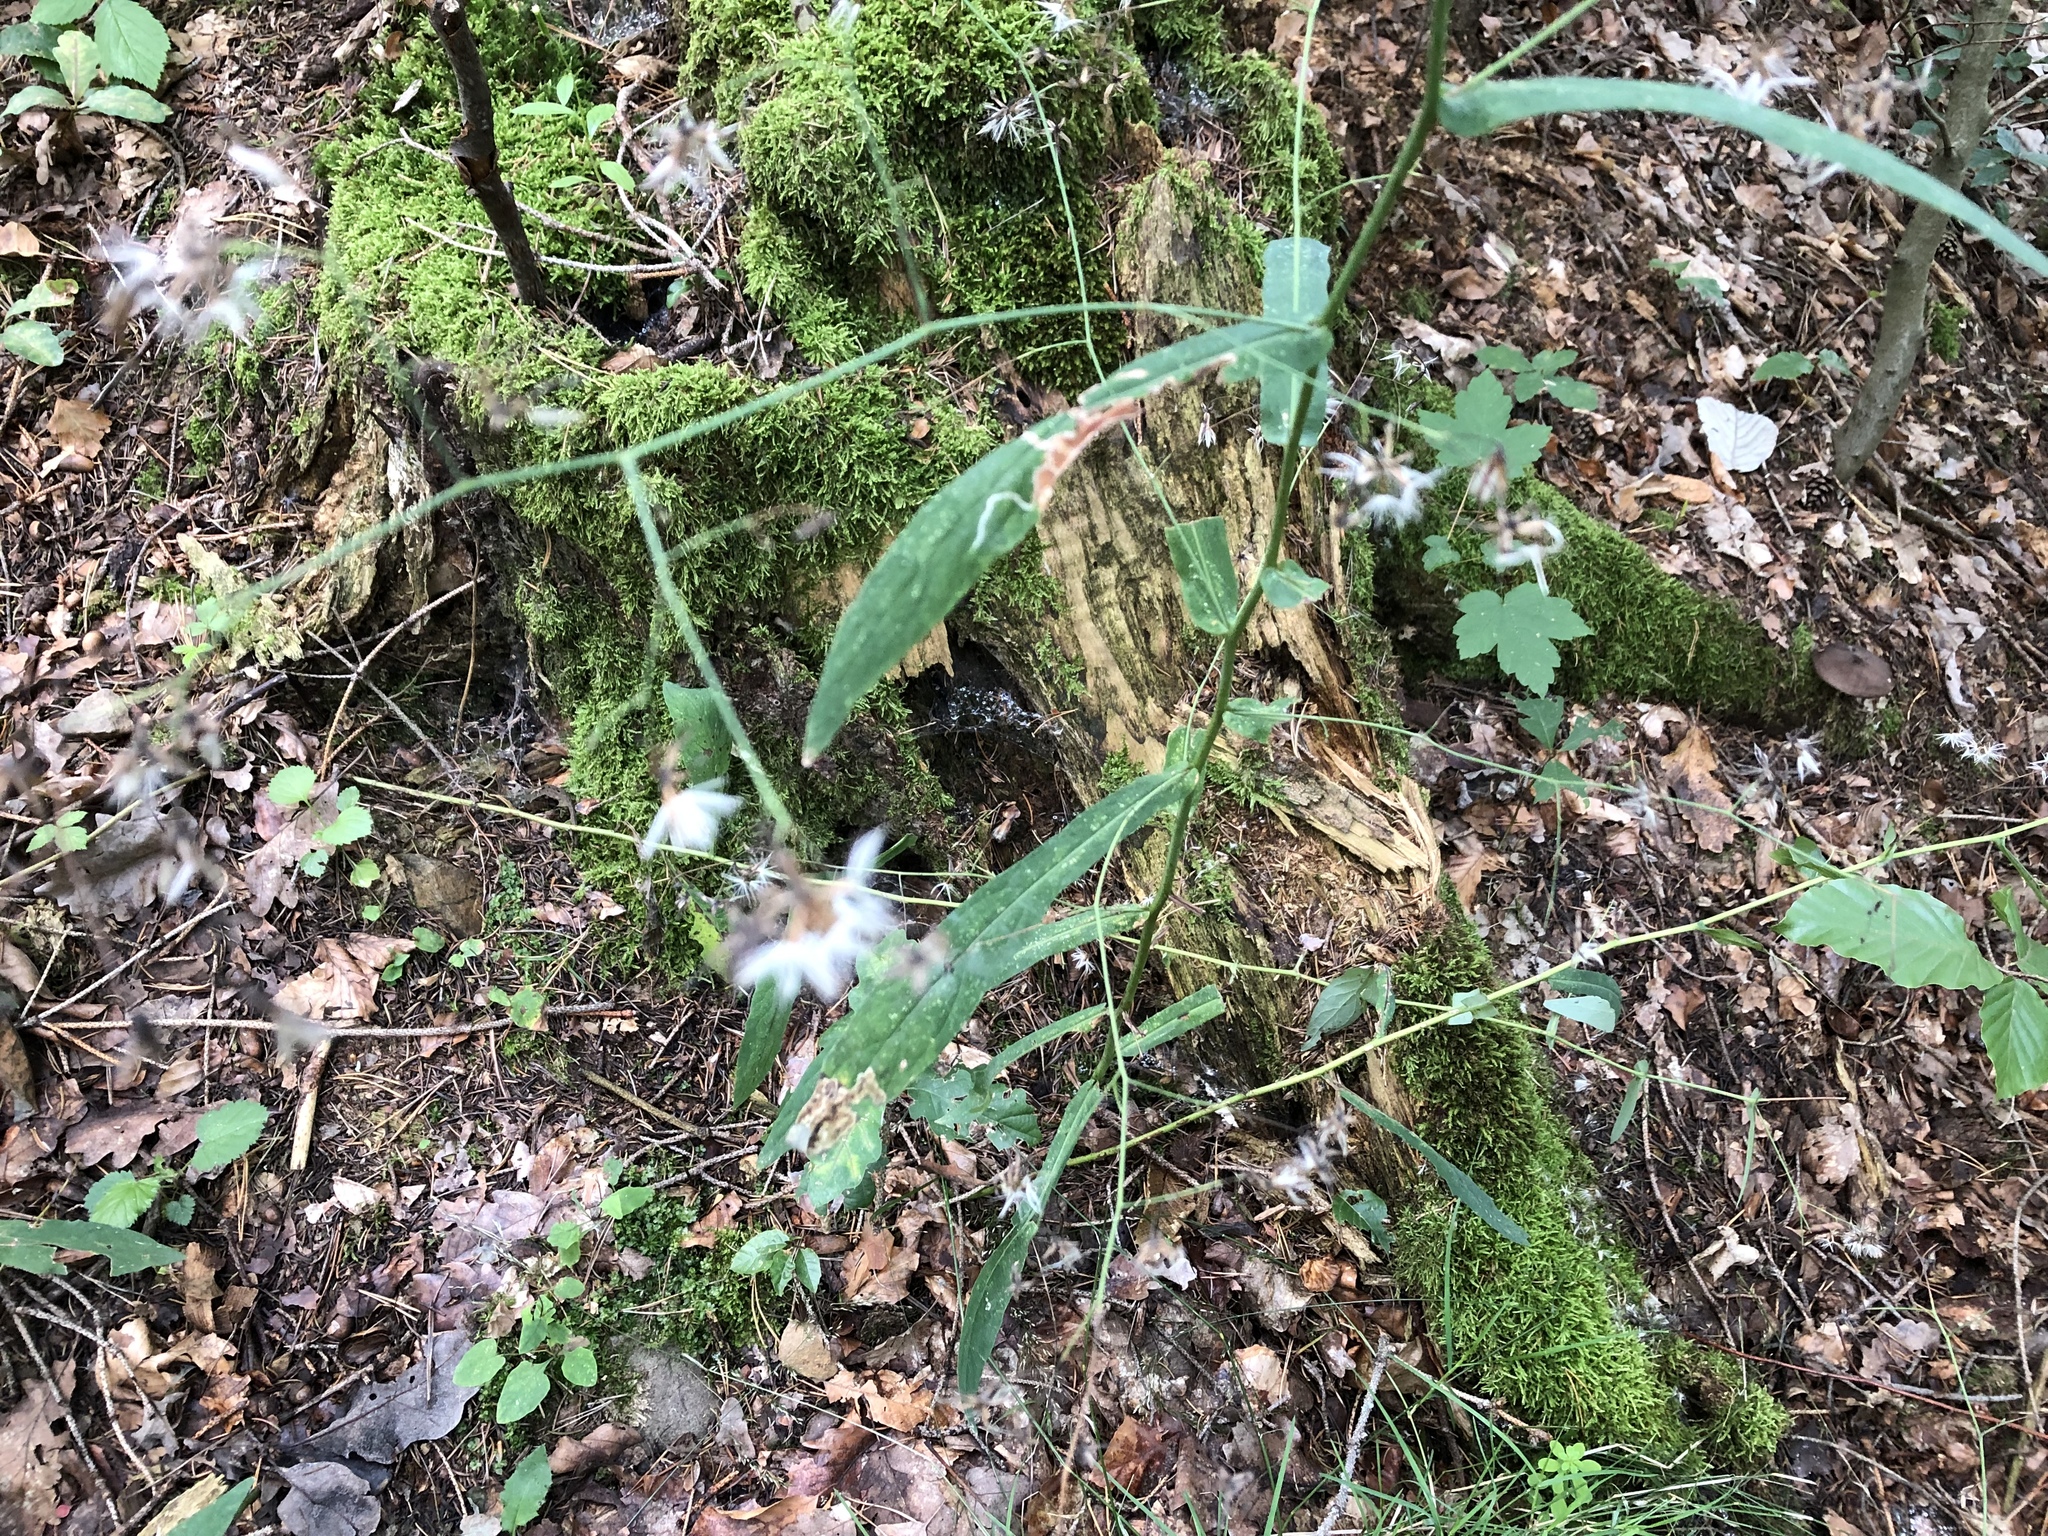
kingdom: Plantae
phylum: Tracheophyta
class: Magnoliopsida
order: Asterales
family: Asteraceae
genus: Prenanthes
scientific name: Prenanthes purpurea
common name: Purple lettuce
